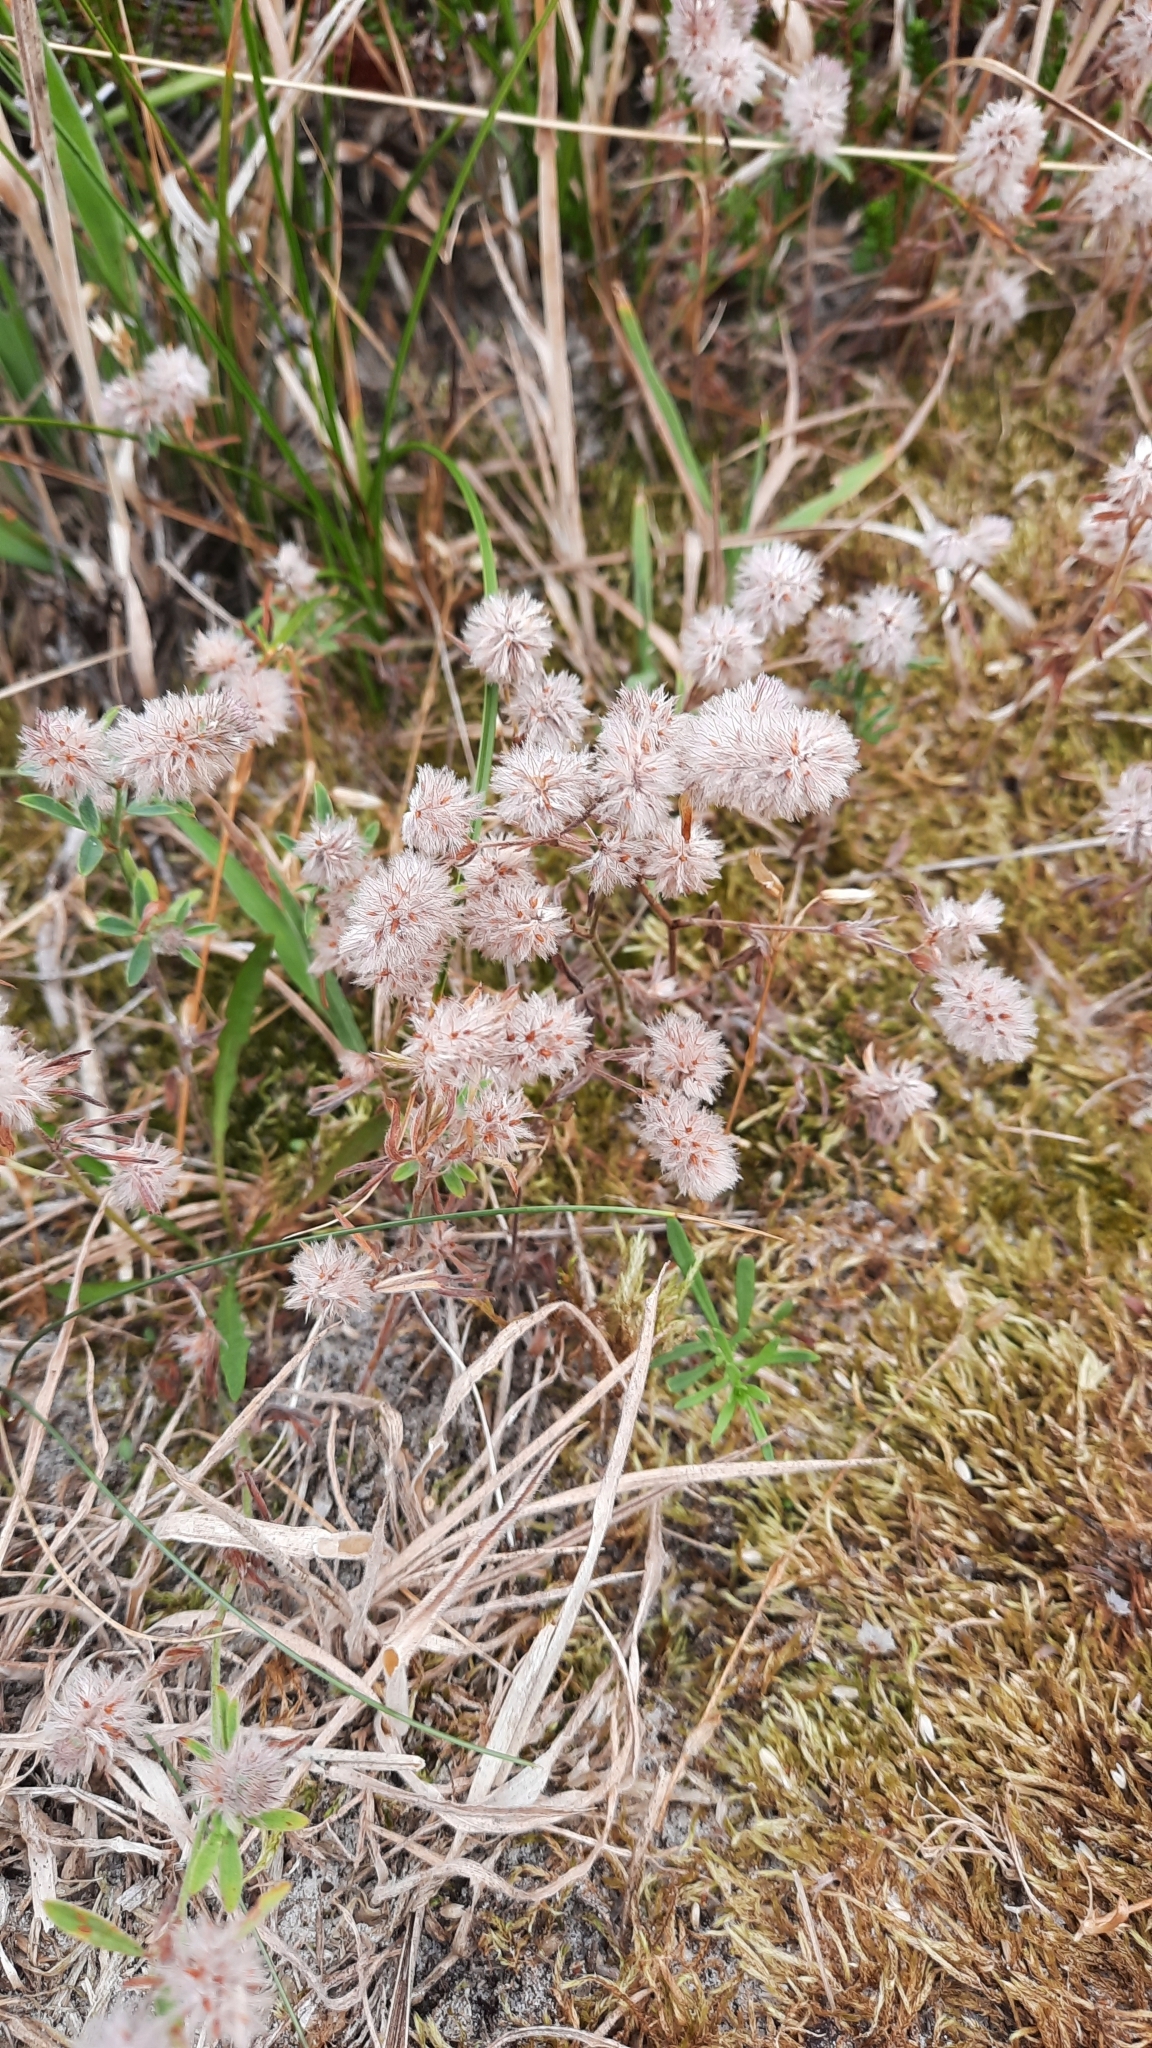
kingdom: Plantae
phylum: Tracheophyta
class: Magnoliopsida
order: Fabales
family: Fabaceae
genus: Trifolium
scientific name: Trifolium arvense
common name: Hare's-foot clover
